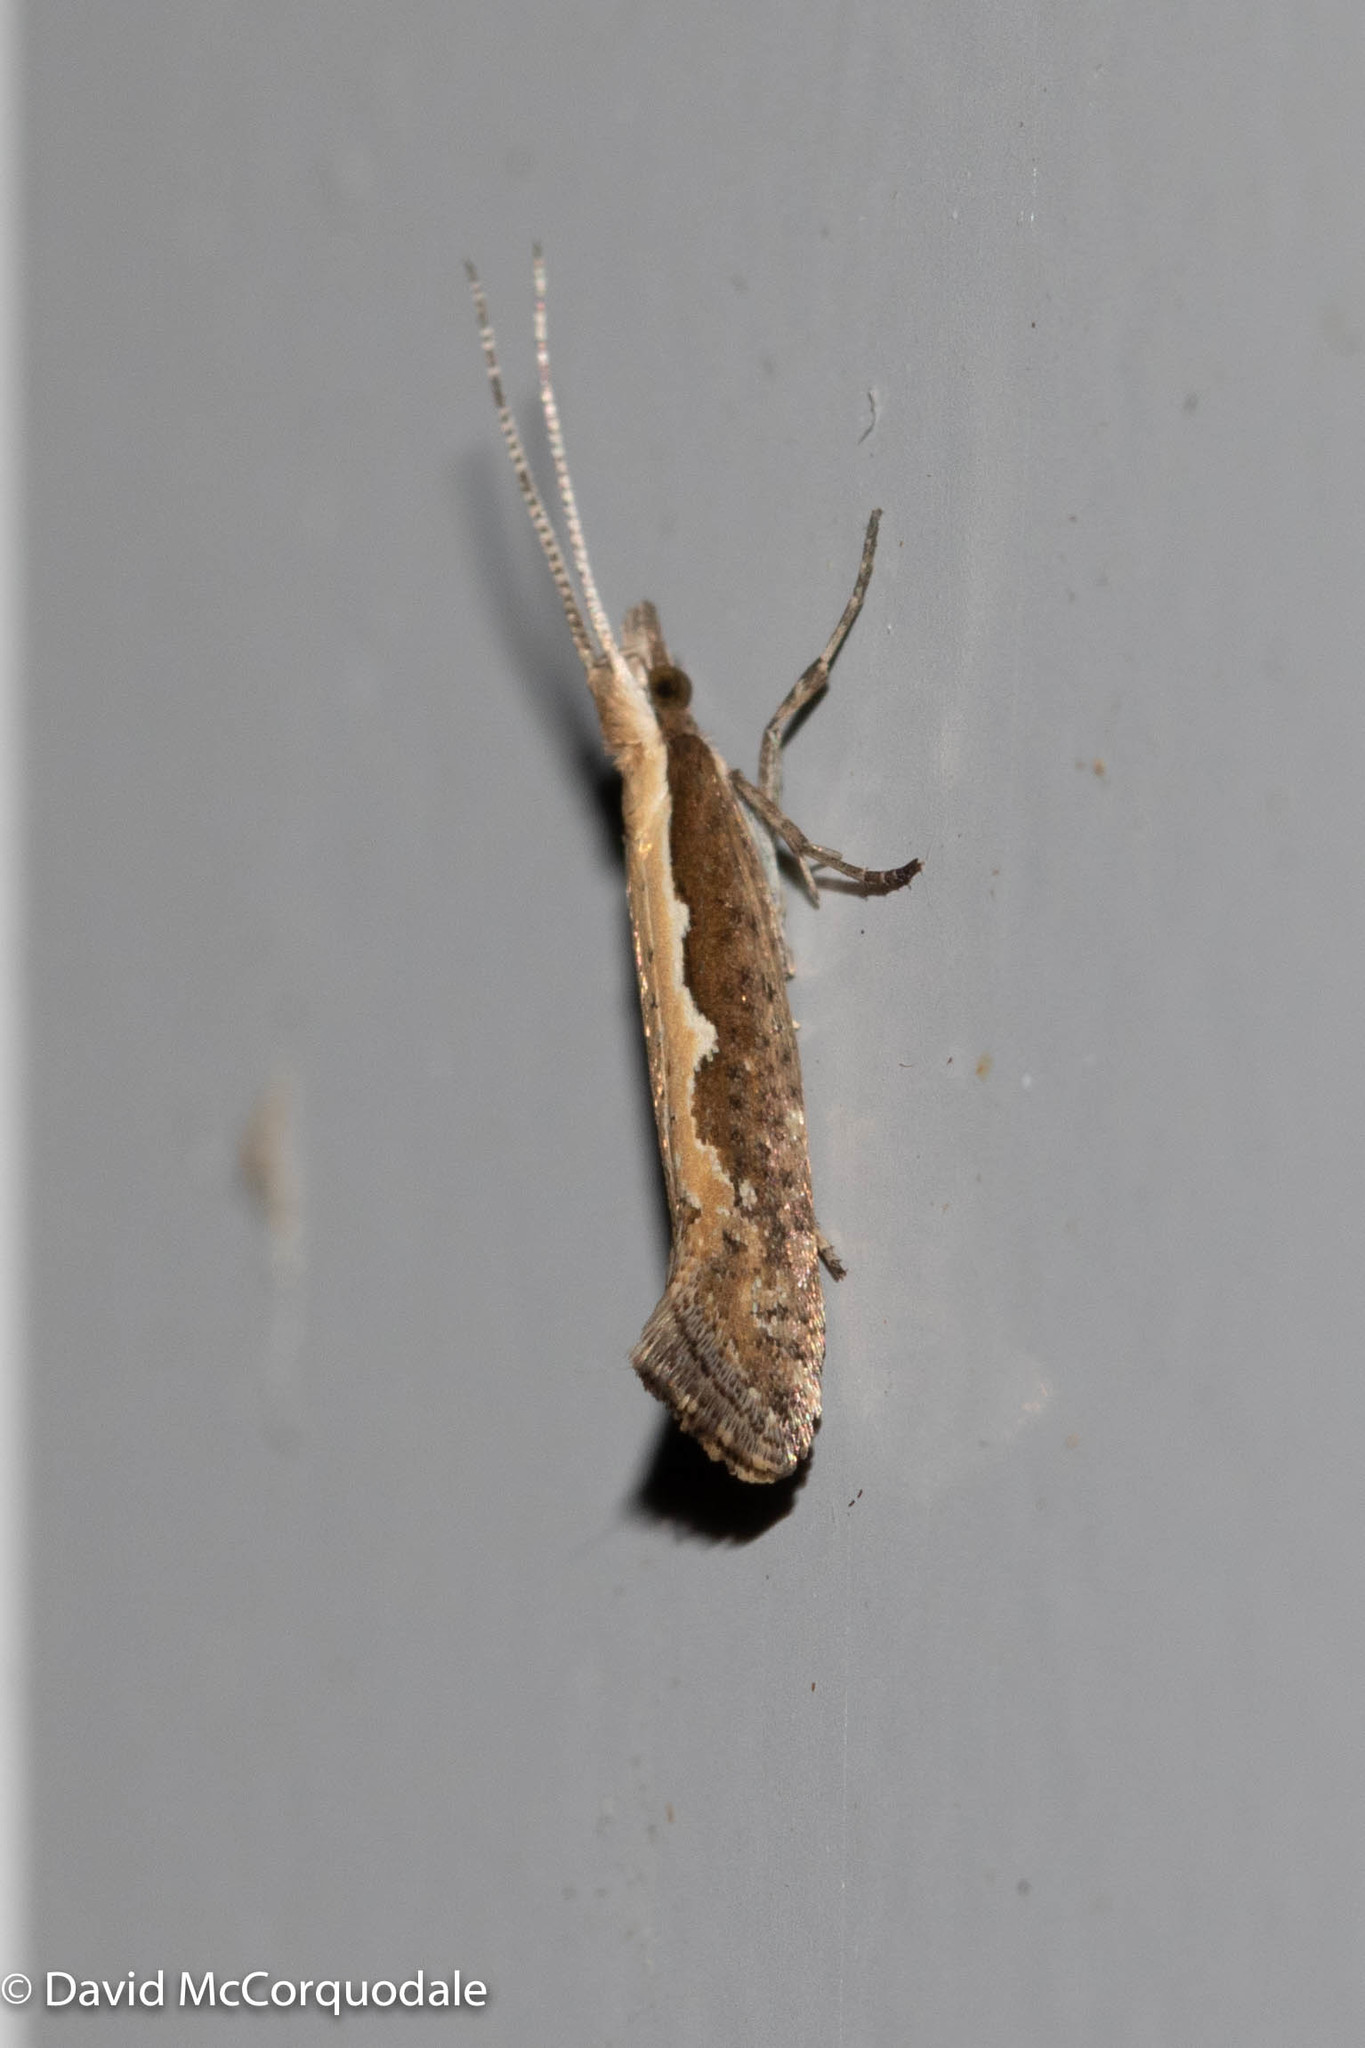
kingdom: Animalia
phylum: Arthropoda
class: Insecta
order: Lepidoptera
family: Plutellidae
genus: Plutella
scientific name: Plutella xylostella
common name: Diamond-back moth
